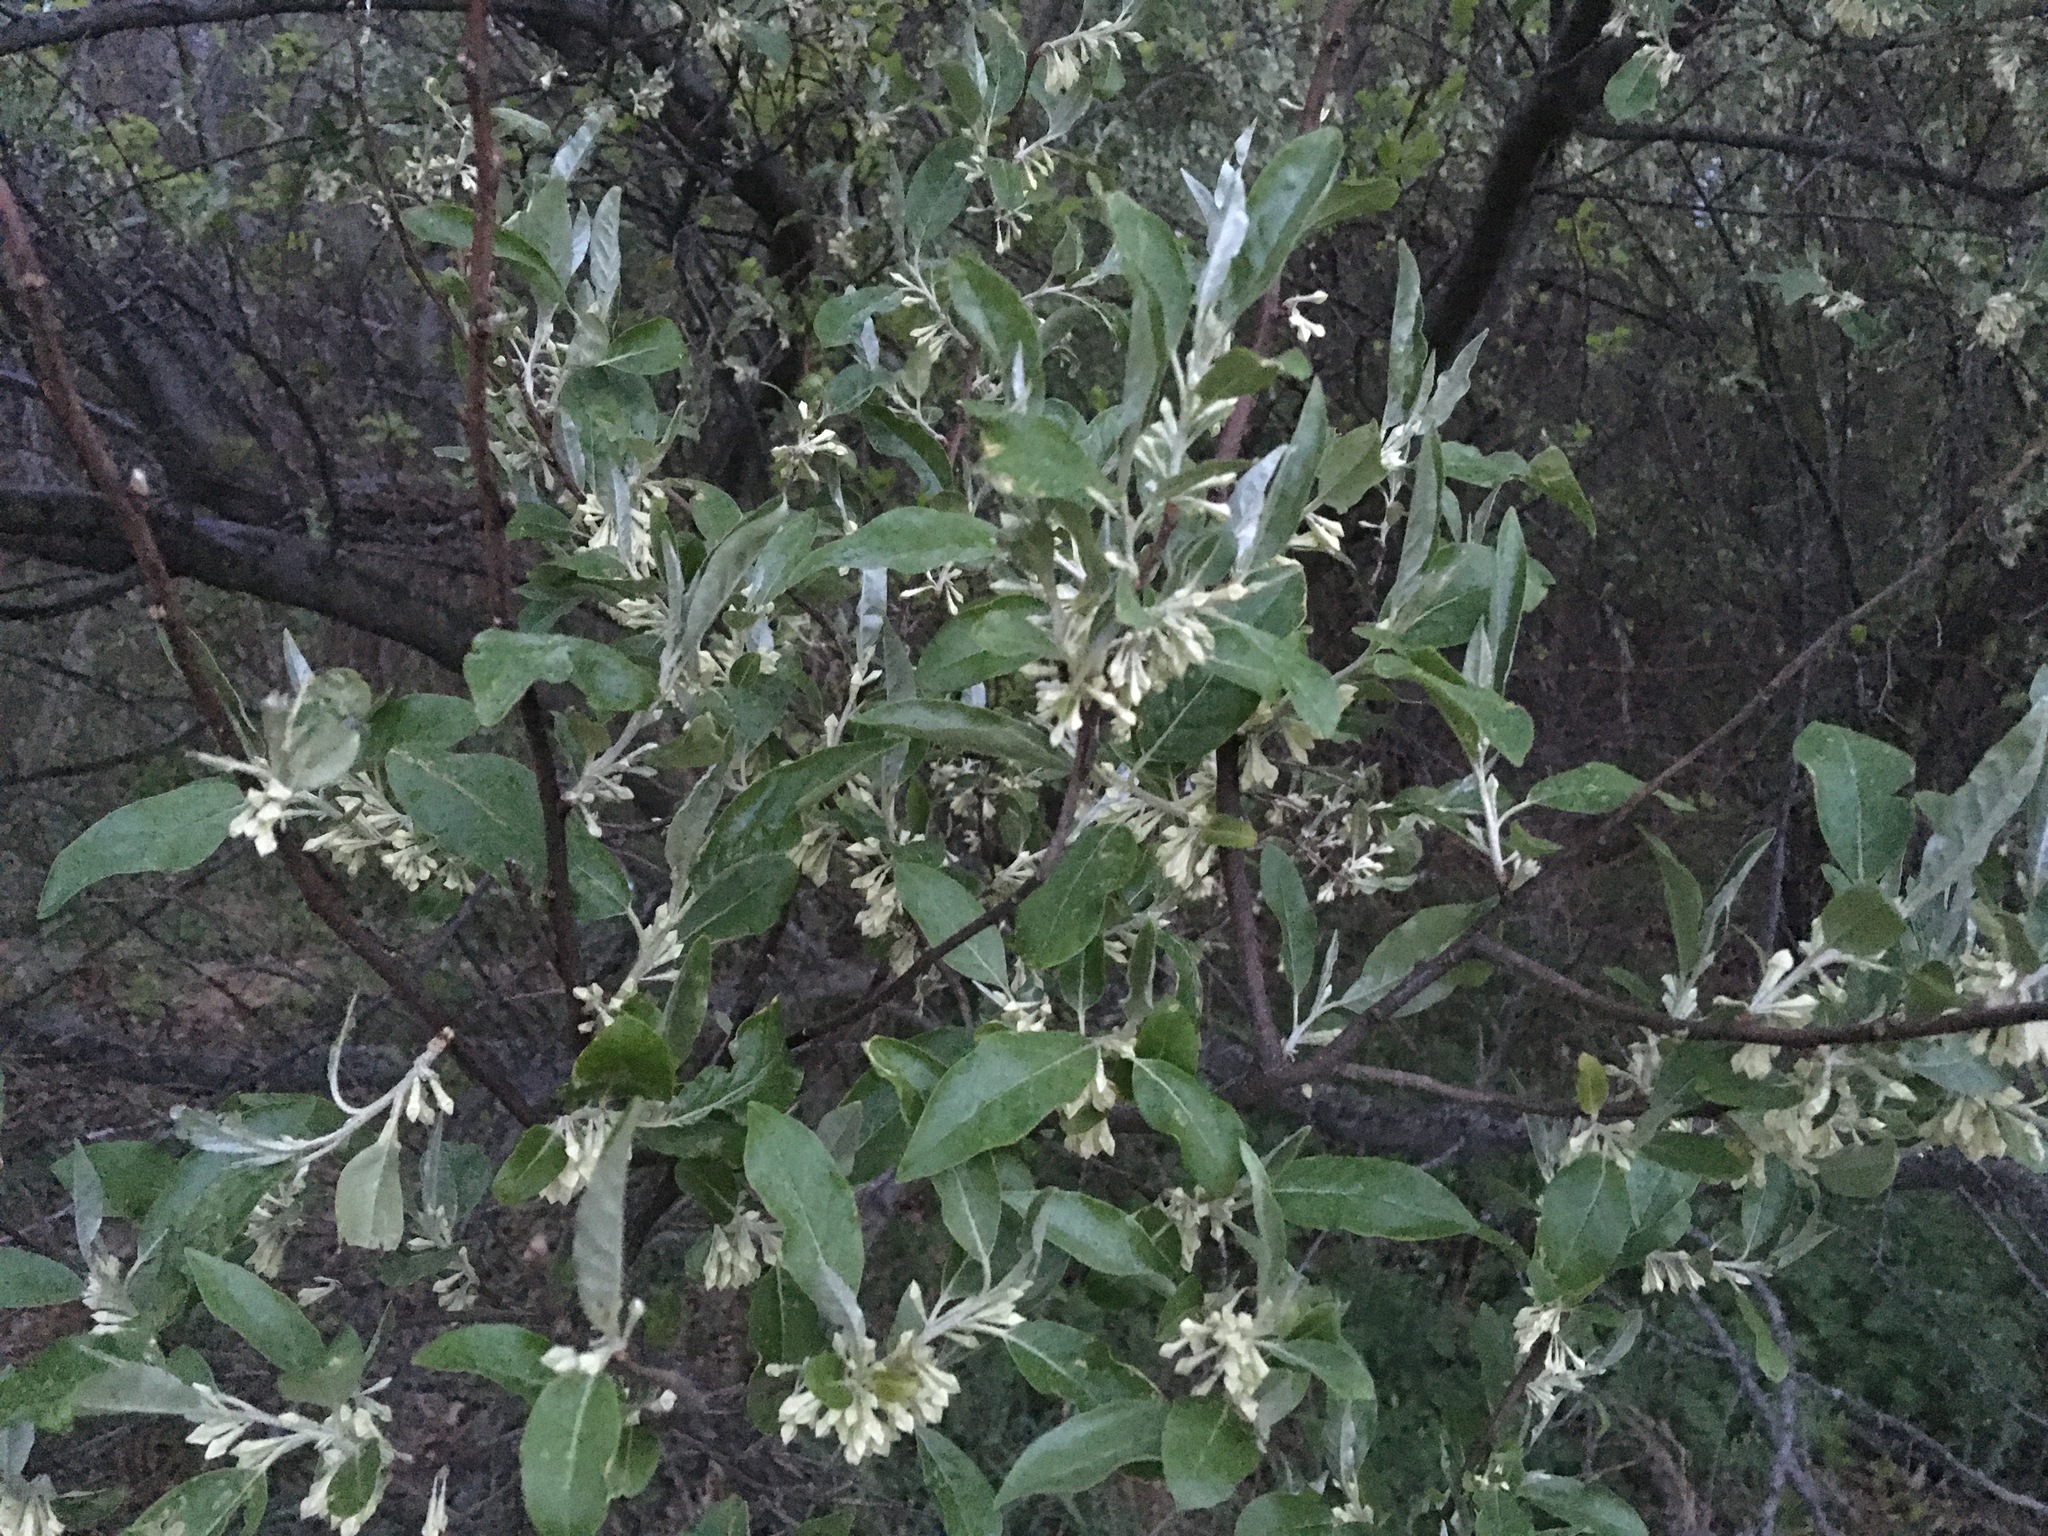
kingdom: Plantae
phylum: Tracheophyta
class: Magnoliopsida
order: Rosales
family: Elaeagnaceae
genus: Elaeagnus
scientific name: Elaeagnus umbellata
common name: Autumn olive
